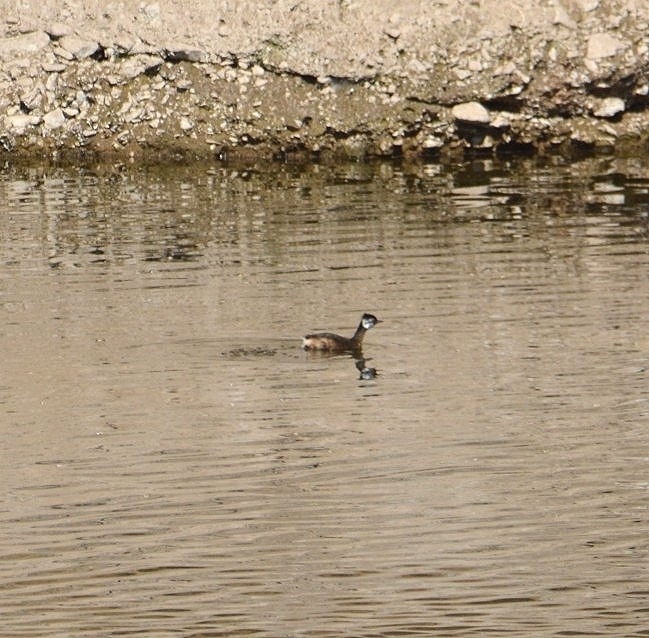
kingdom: Animalia
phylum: Chordata
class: Aves
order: Podicipediformes
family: Podicipedidae
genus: Rollandia
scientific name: Rollandia rolland
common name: White-tufted grebe
